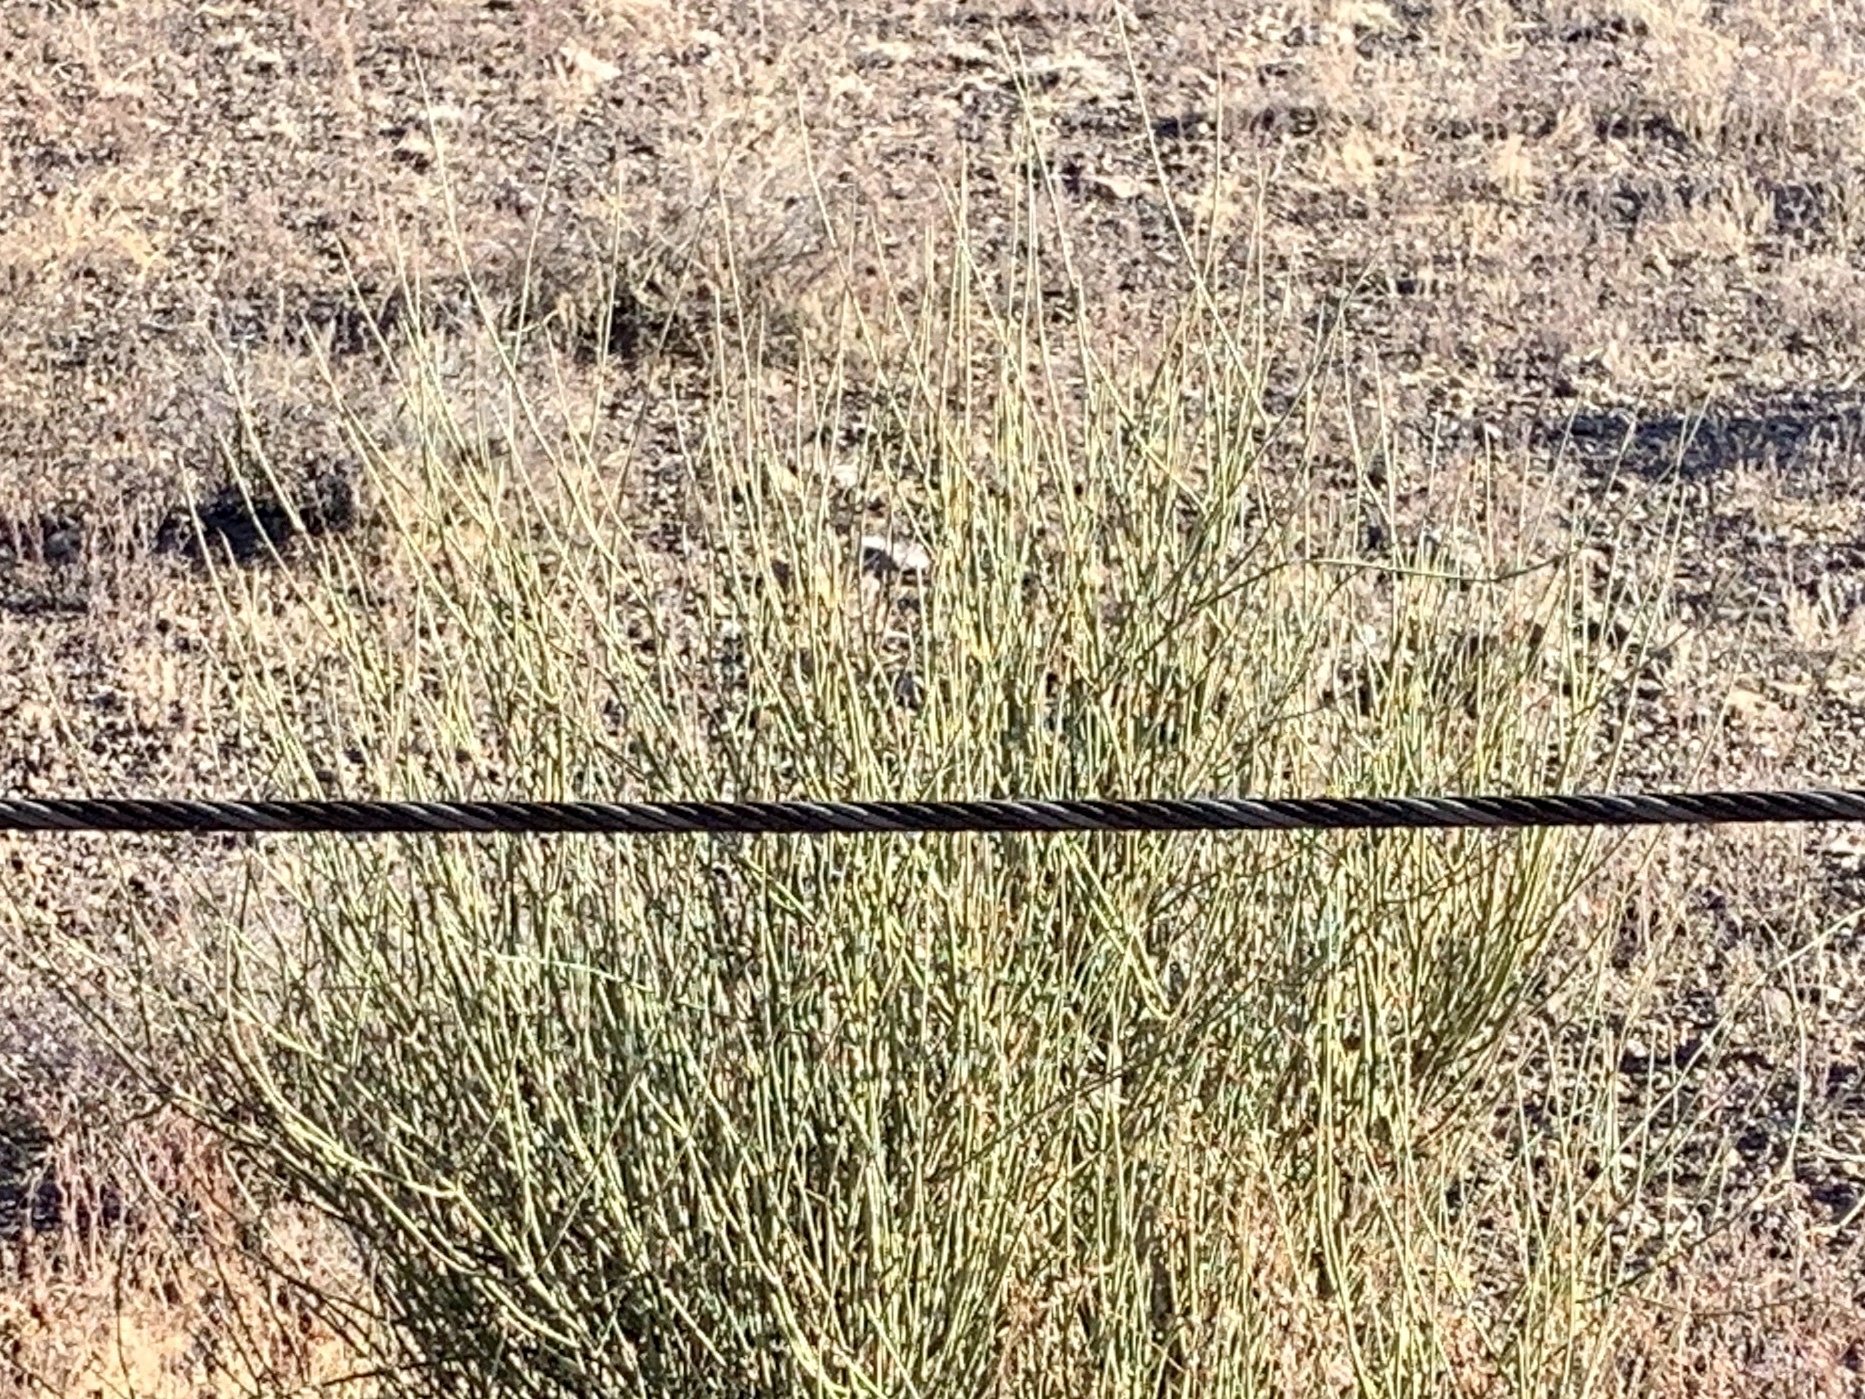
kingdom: Plantae
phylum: Tracheophyta
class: Gnetopsida
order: Ephedrales
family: Ephedraceae
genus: Ephedra
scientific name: Ephedra trifurca
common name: Mexican-tea
